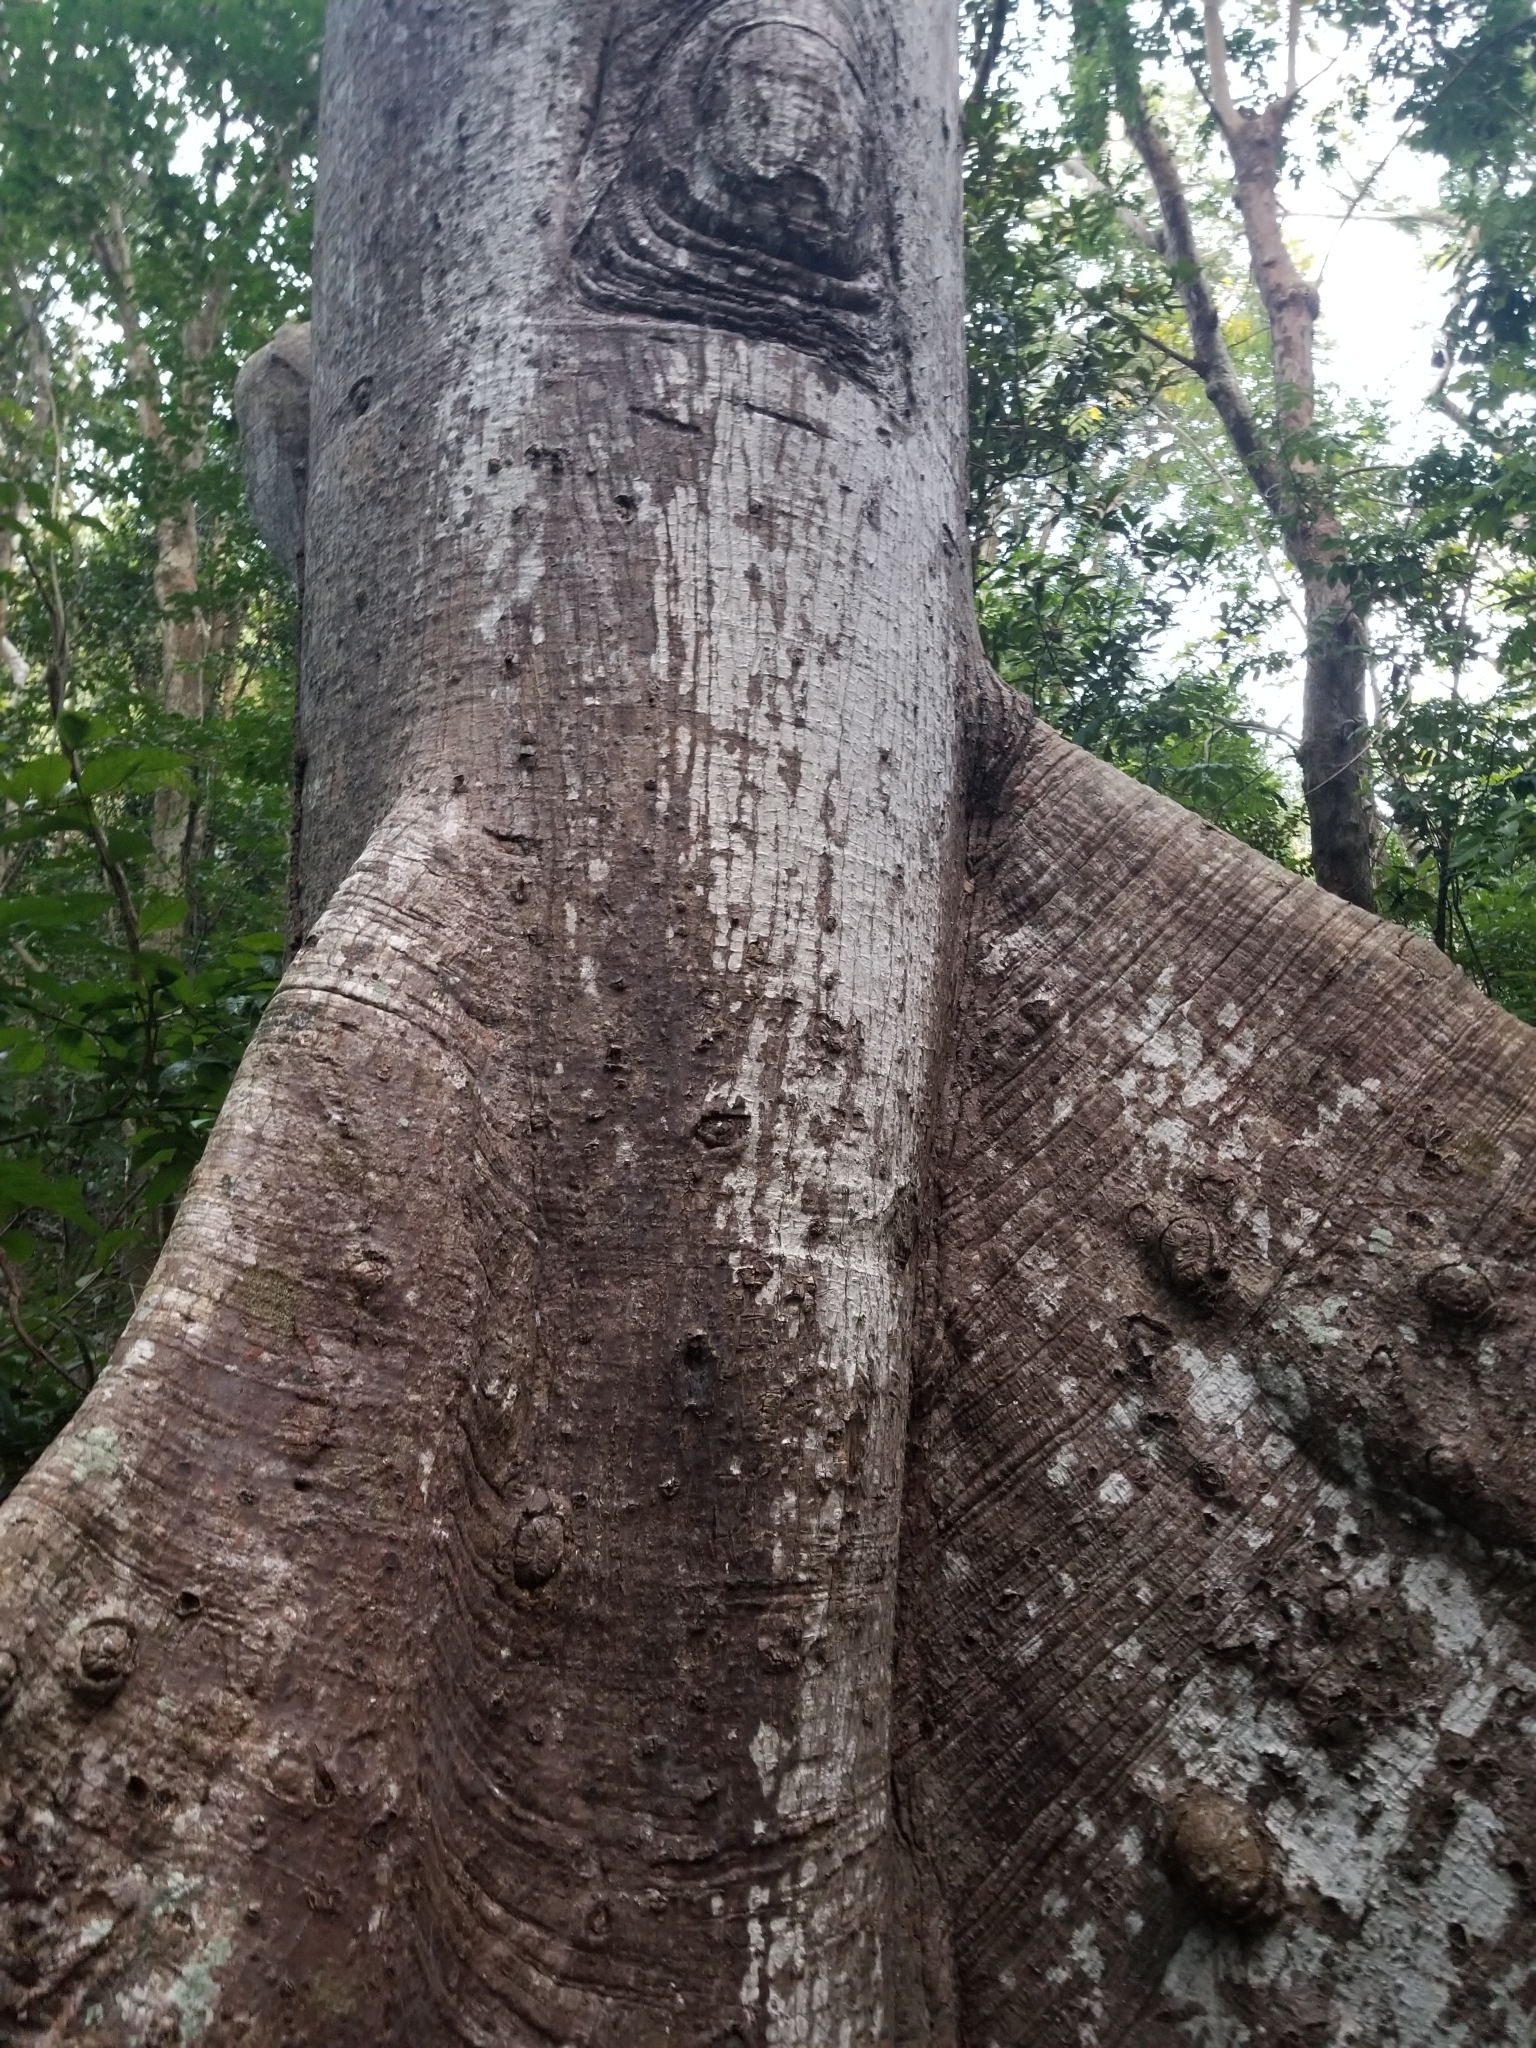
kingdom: Plantae
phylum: Tracheophyta
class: Magnoliopsida
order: Malvales
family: Malvaceae
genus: Ceiba
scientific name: Ceiba pentandra
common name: Kapok
